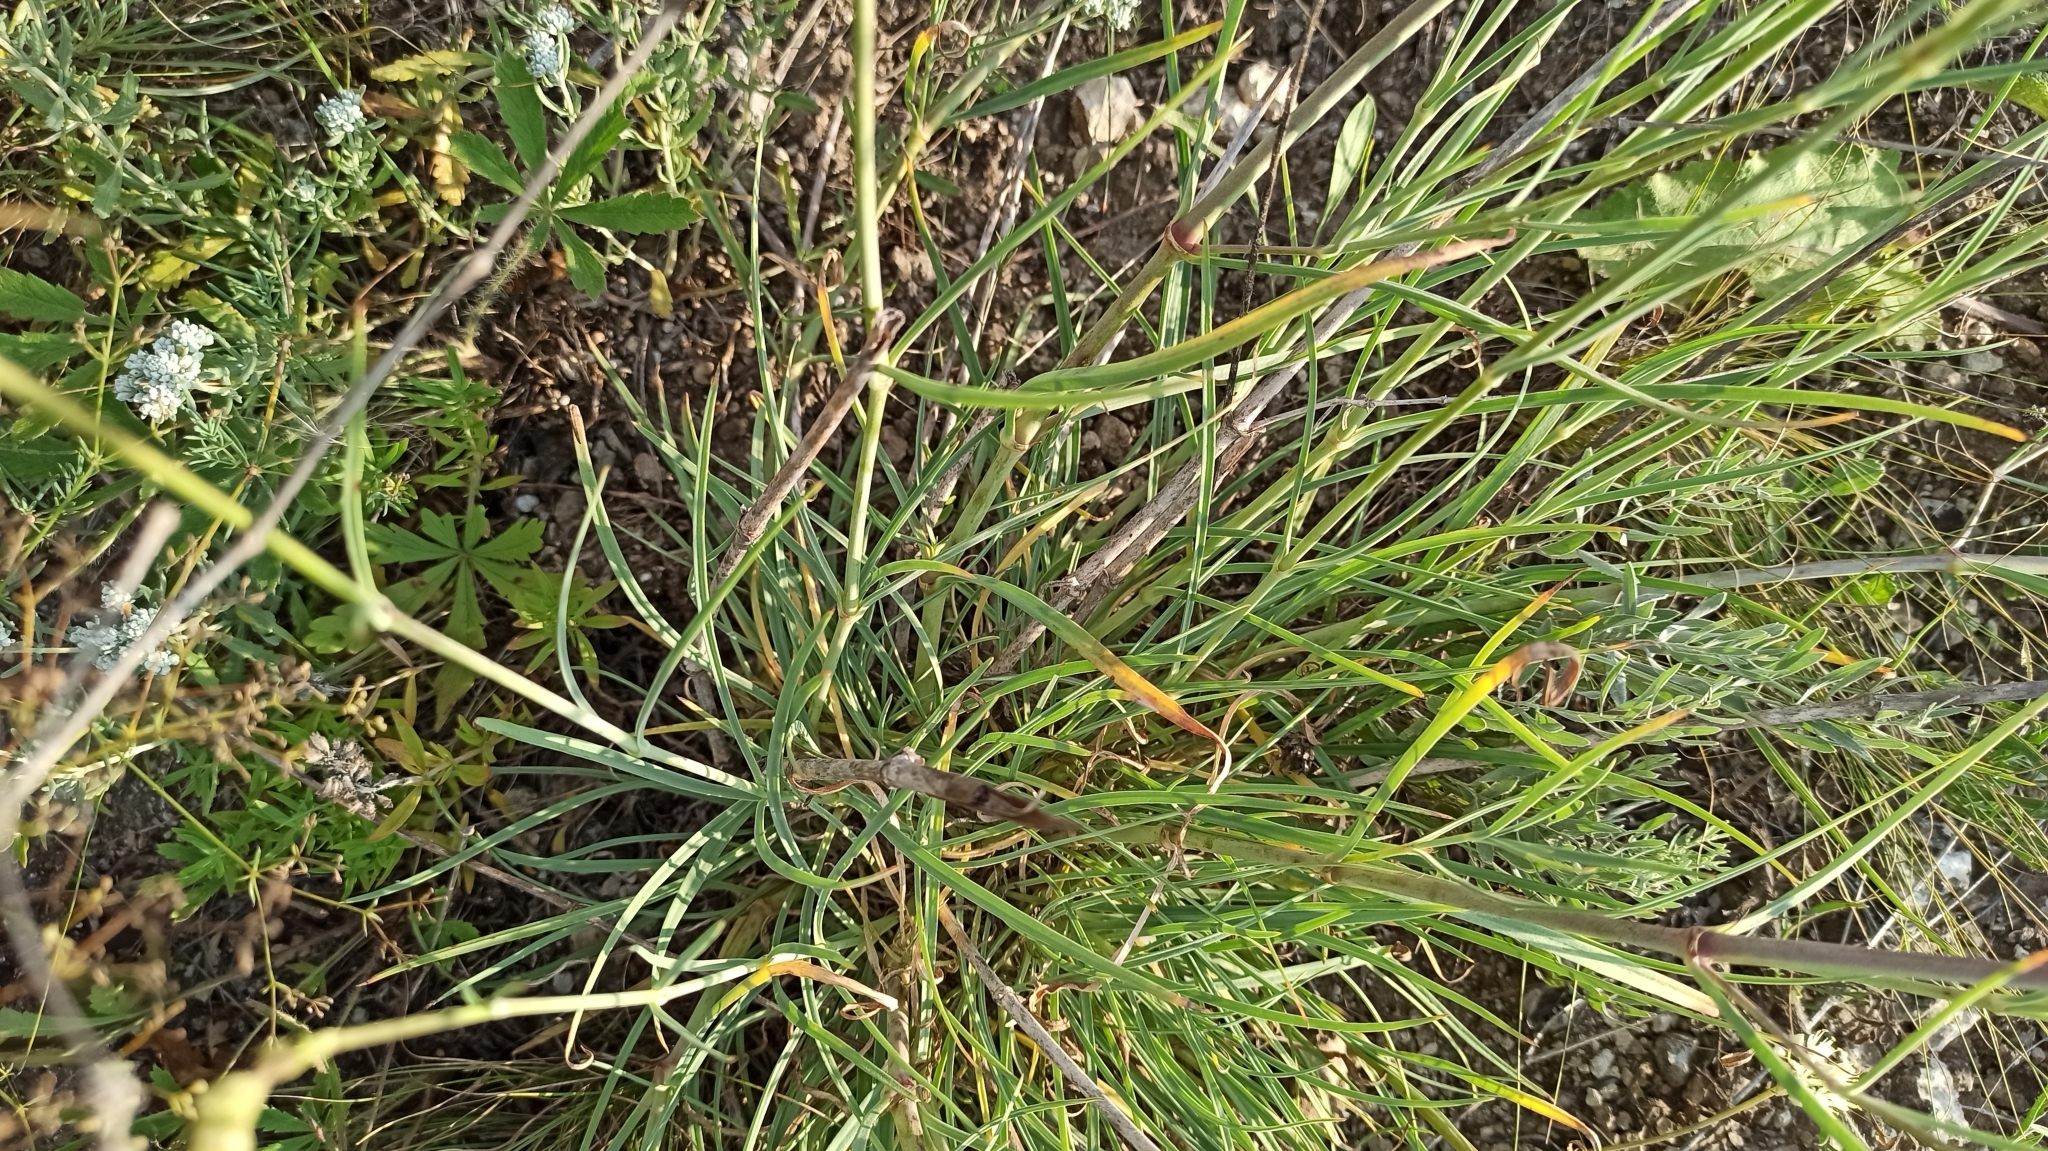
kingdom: Plantae
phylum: Tracheophyta
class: Magnoliopsida
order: Caryophyllales
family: Caryophyllaceae
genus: Gypsophila
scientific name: Gypsophila glomerata
